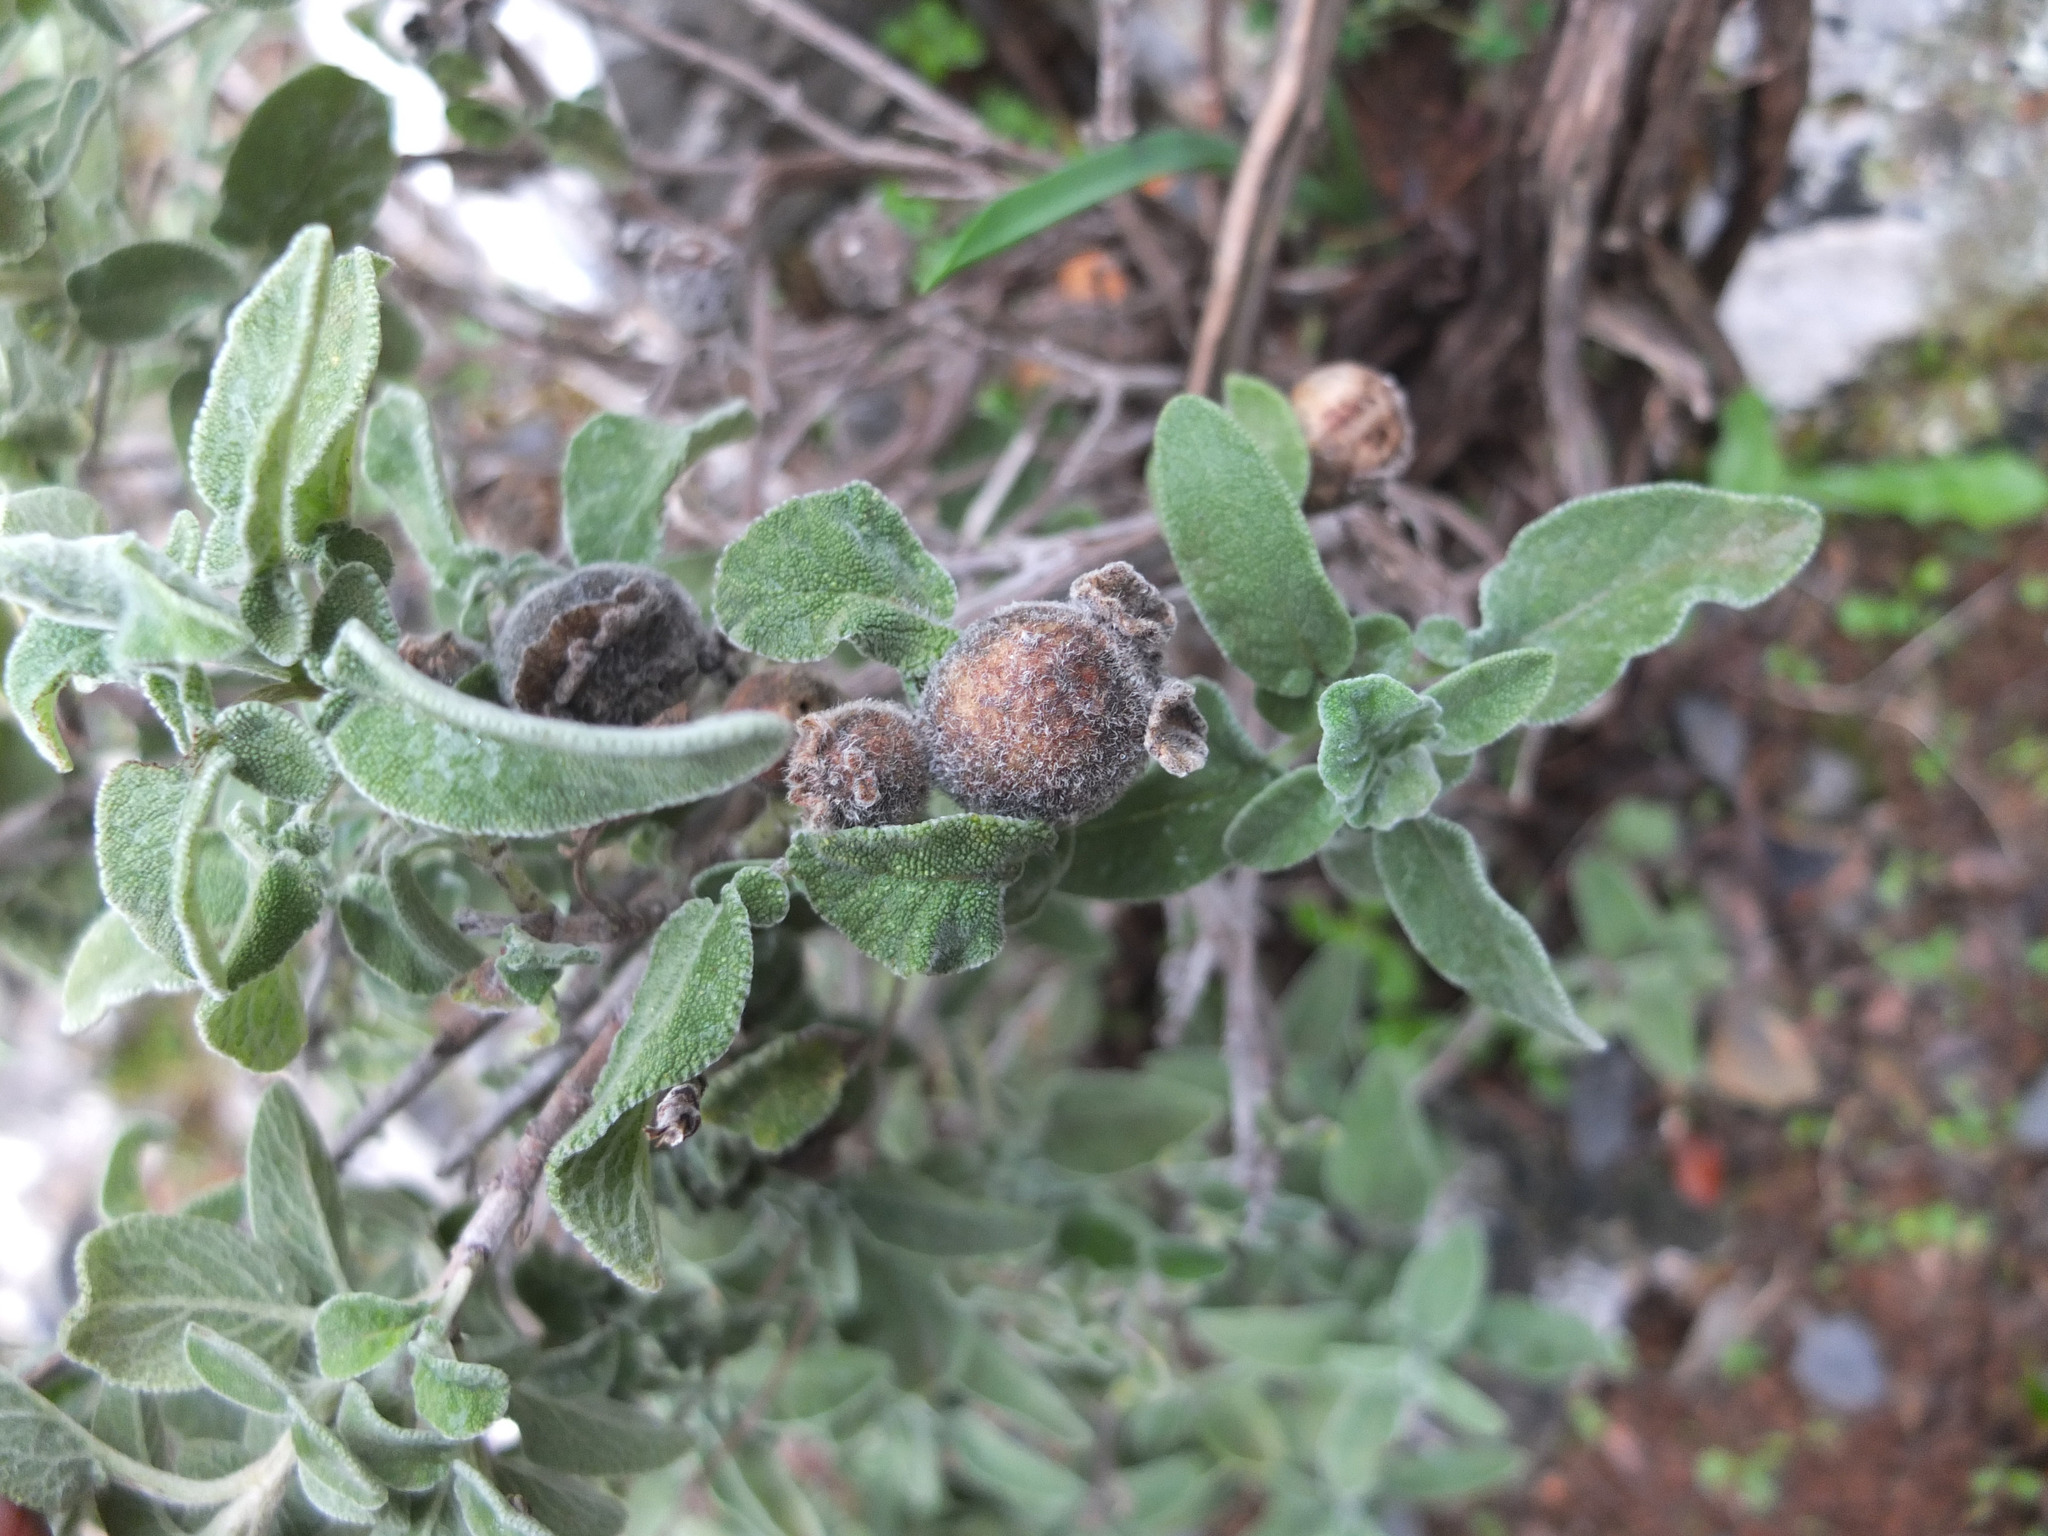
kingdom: Plantae
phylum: Tracheophyta
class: Magnoliopsida
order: Lamiales
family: Lamiaceae
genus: Salvia
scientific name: Salvia fruticosa
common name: Greek sage
